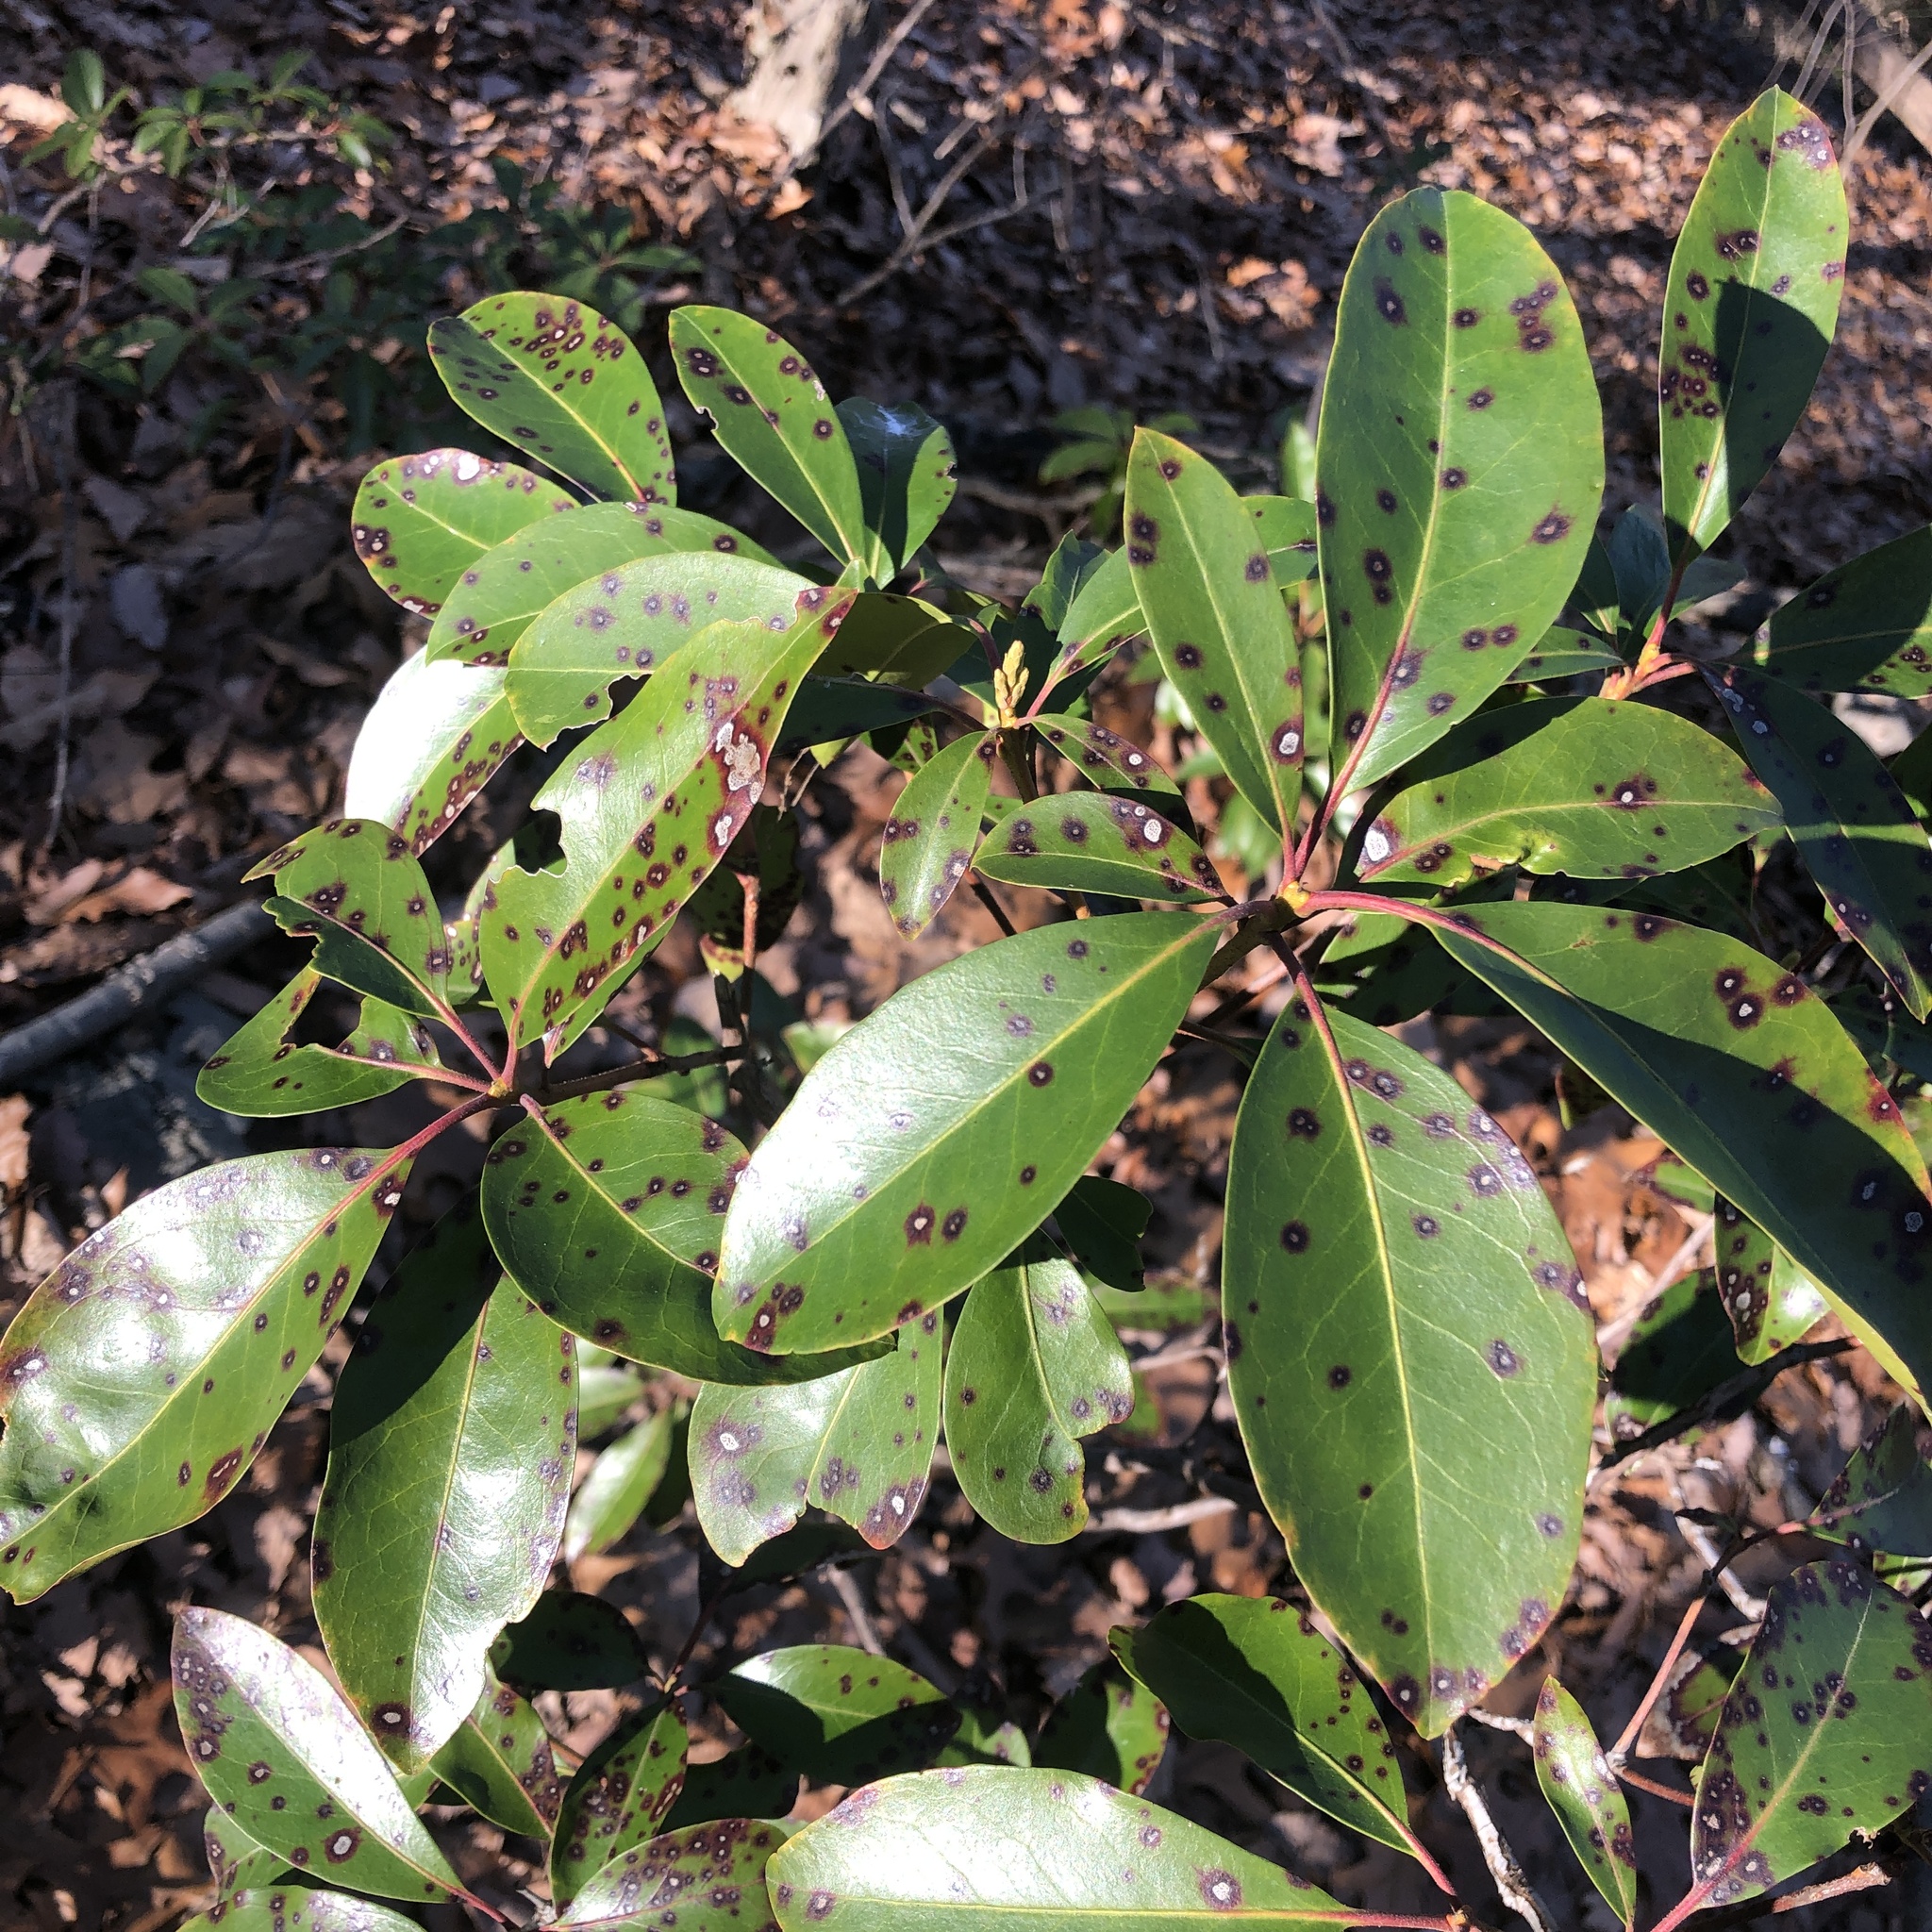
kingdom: Plantae
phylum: Tracheophyta
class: Magnoliopsida
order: Ericales
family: Ericaceae
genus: Kalmia
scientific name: Kalmia latifolia
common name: Mountain-laurel
